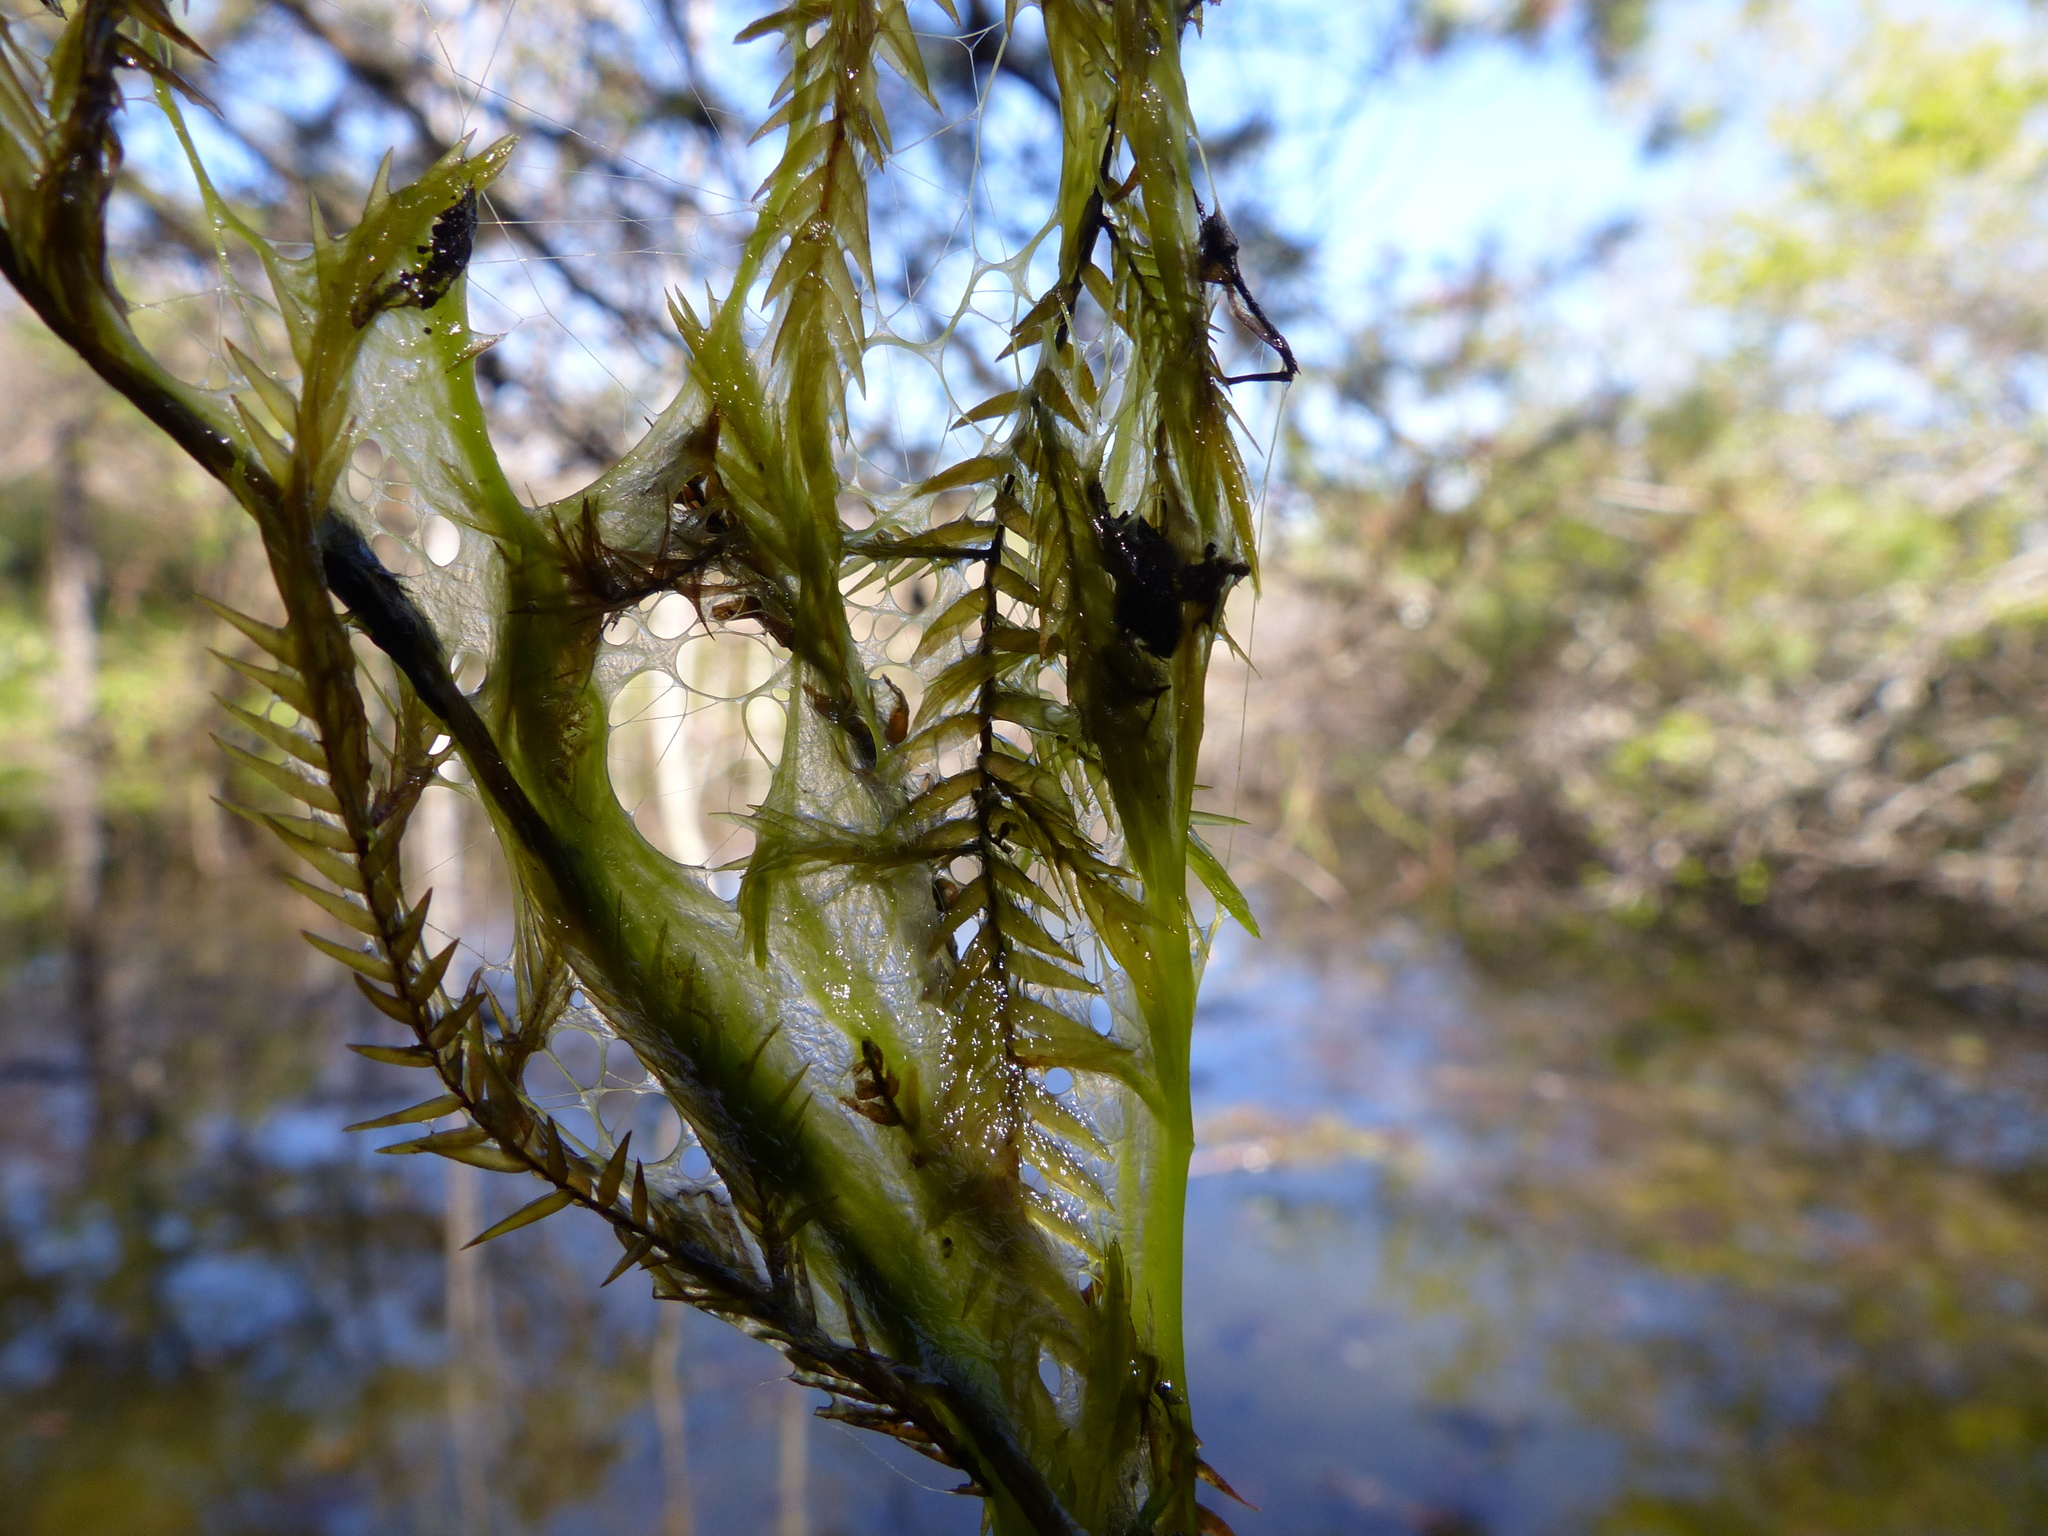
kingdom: Plantae
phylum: Bryophyta
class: Bryopsida
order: Hypnales
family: Fontinalaceae
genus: Fontinalis
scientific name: Fontinalis antipyretica
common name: Greater water-moss
